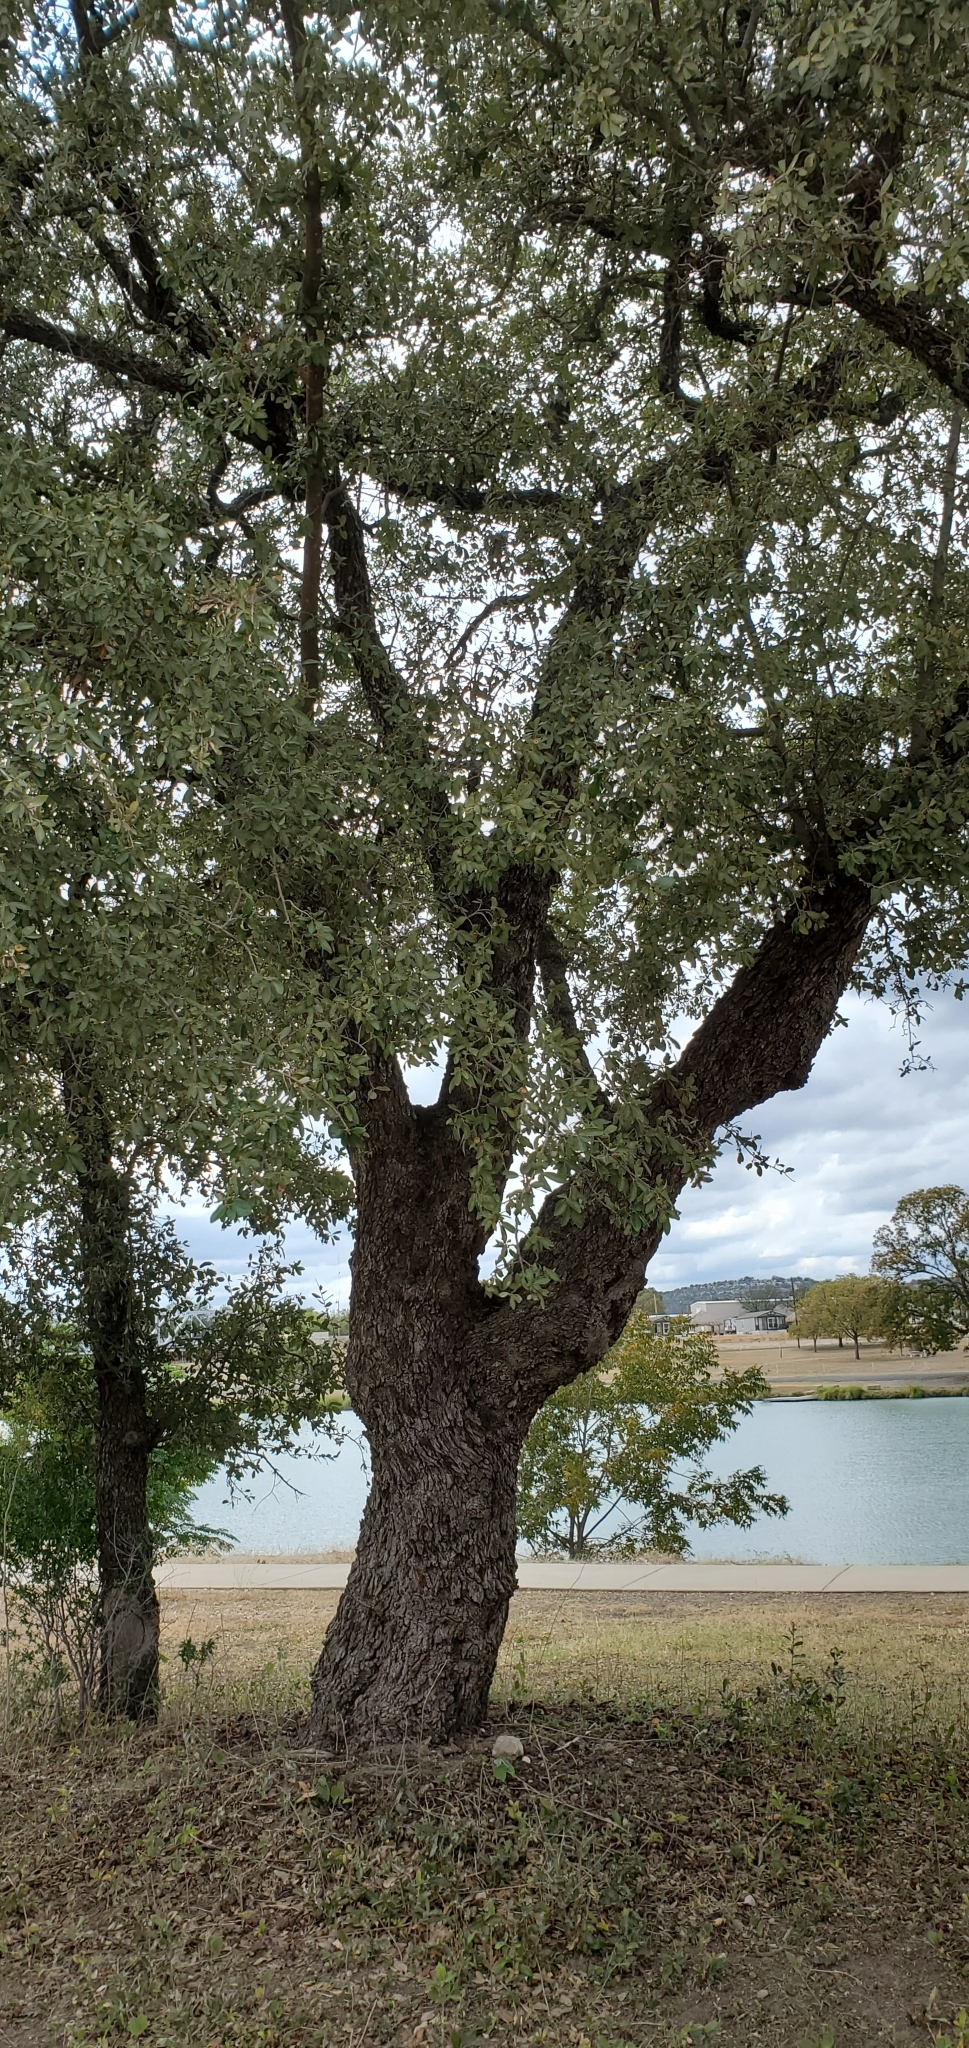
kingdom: Plantae
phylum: Tracheophyta
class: Magnoliopsida
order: Fagales
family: Fagaceae
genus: Quercus
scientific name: Quercus fusiformis
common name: Texas live oak
